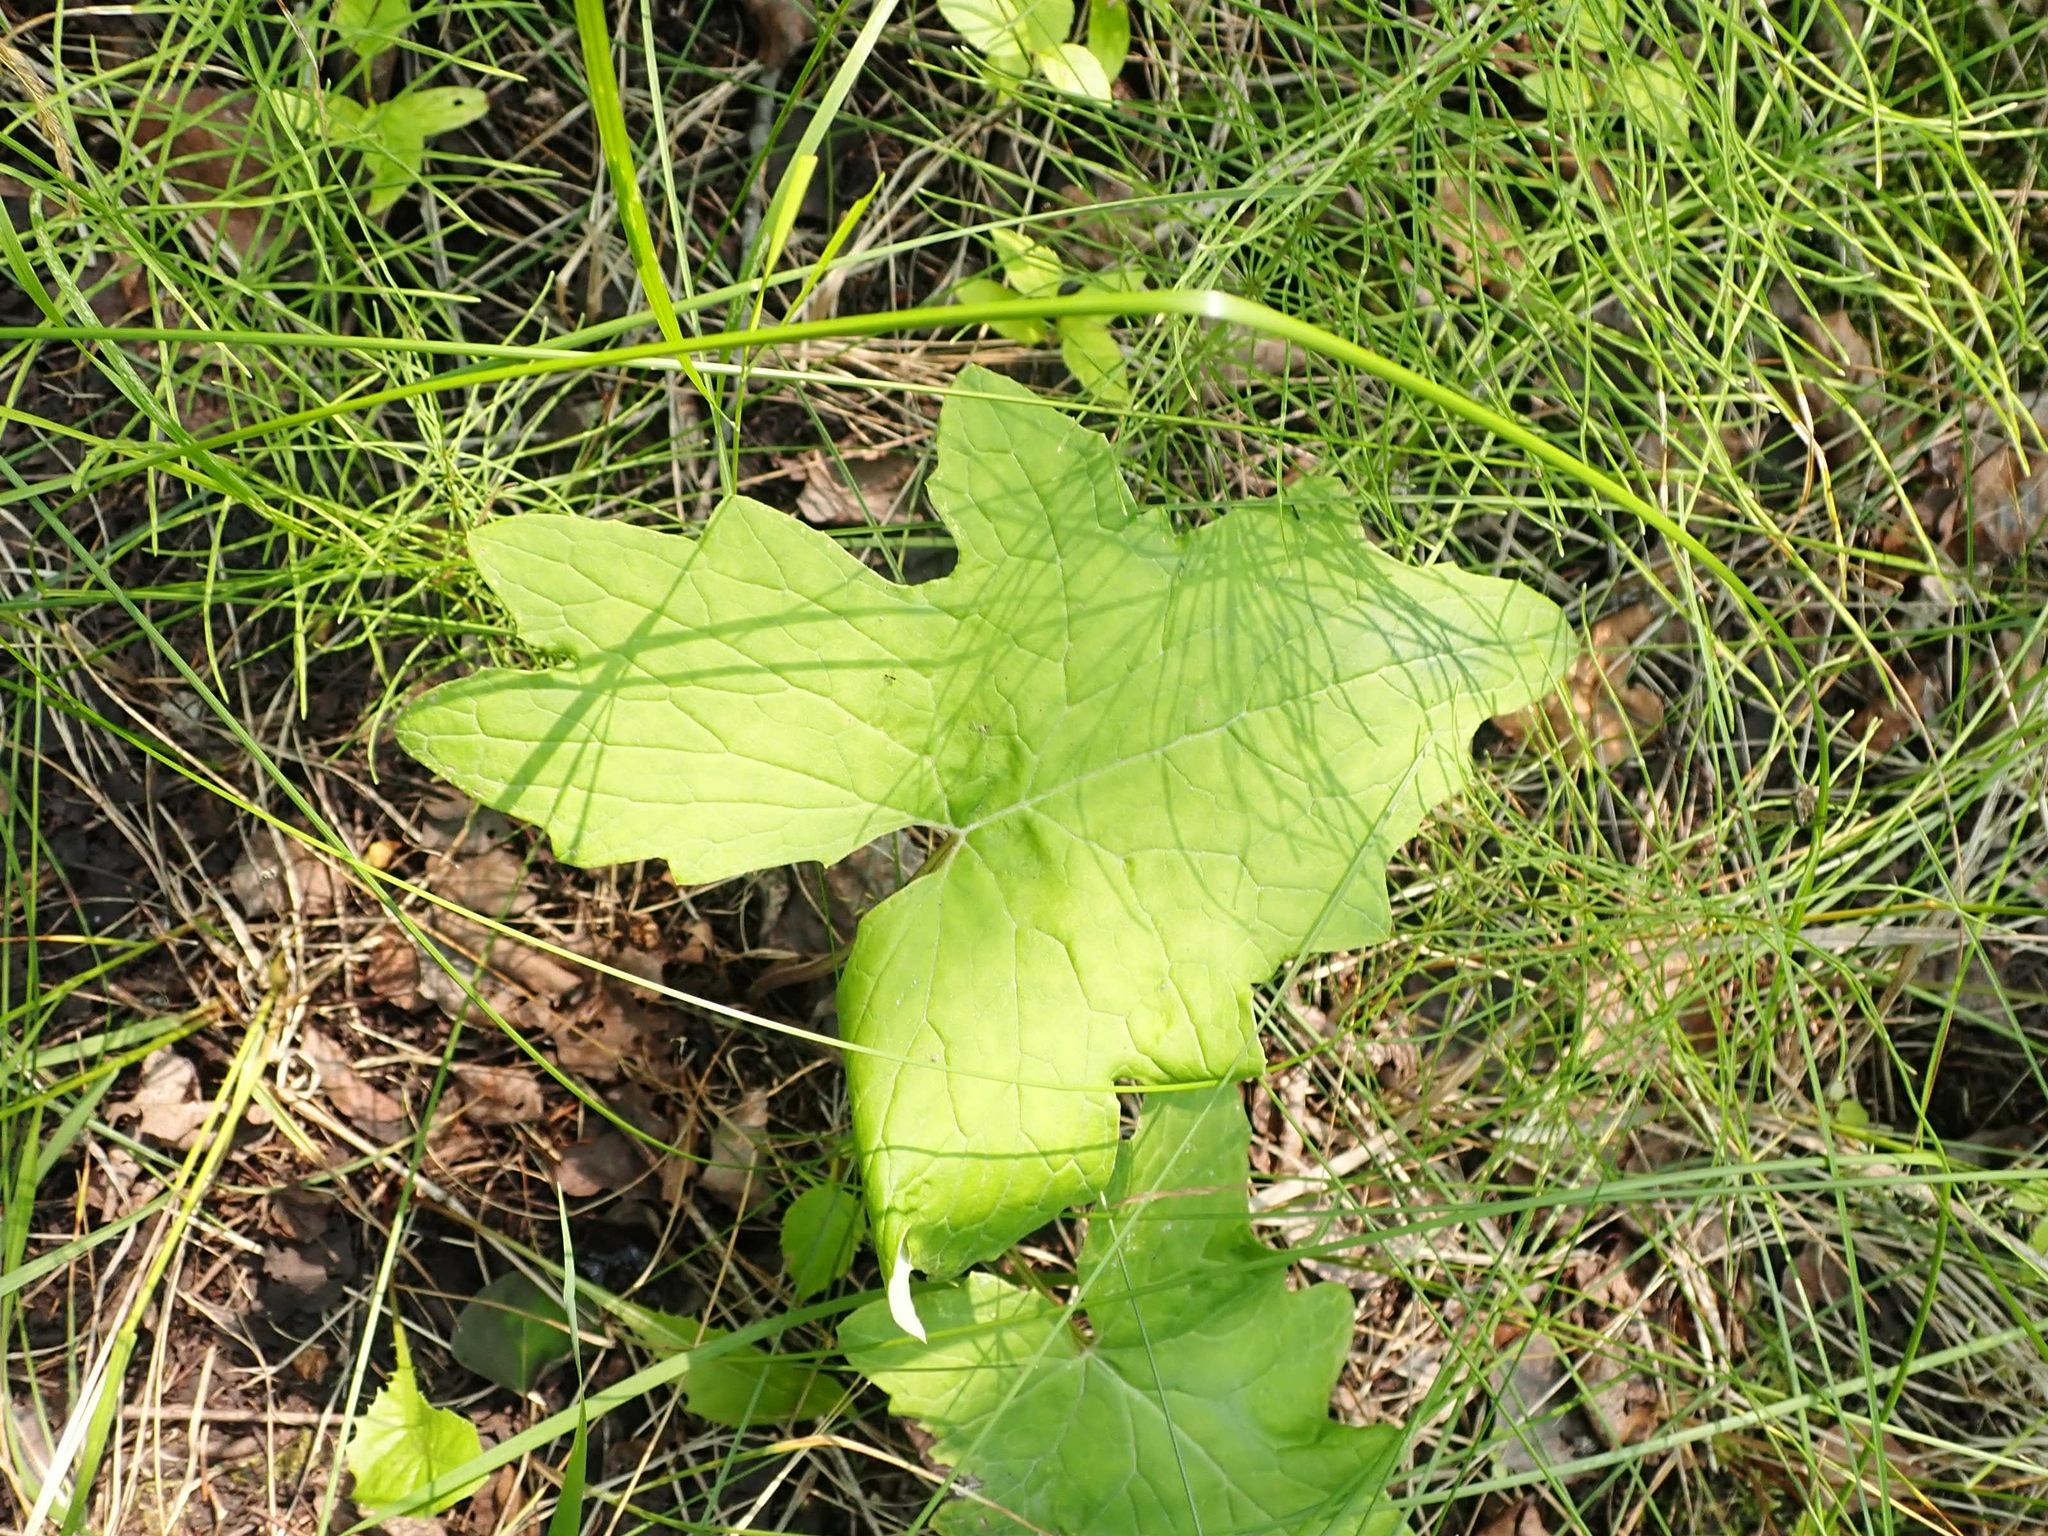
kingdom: Plantae
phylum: Tracheophyta
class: Magnoliopsida
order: Asterales
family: Asteraceae
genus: Petasites
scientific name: Petasites frigidus
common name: Arctic butterbur
